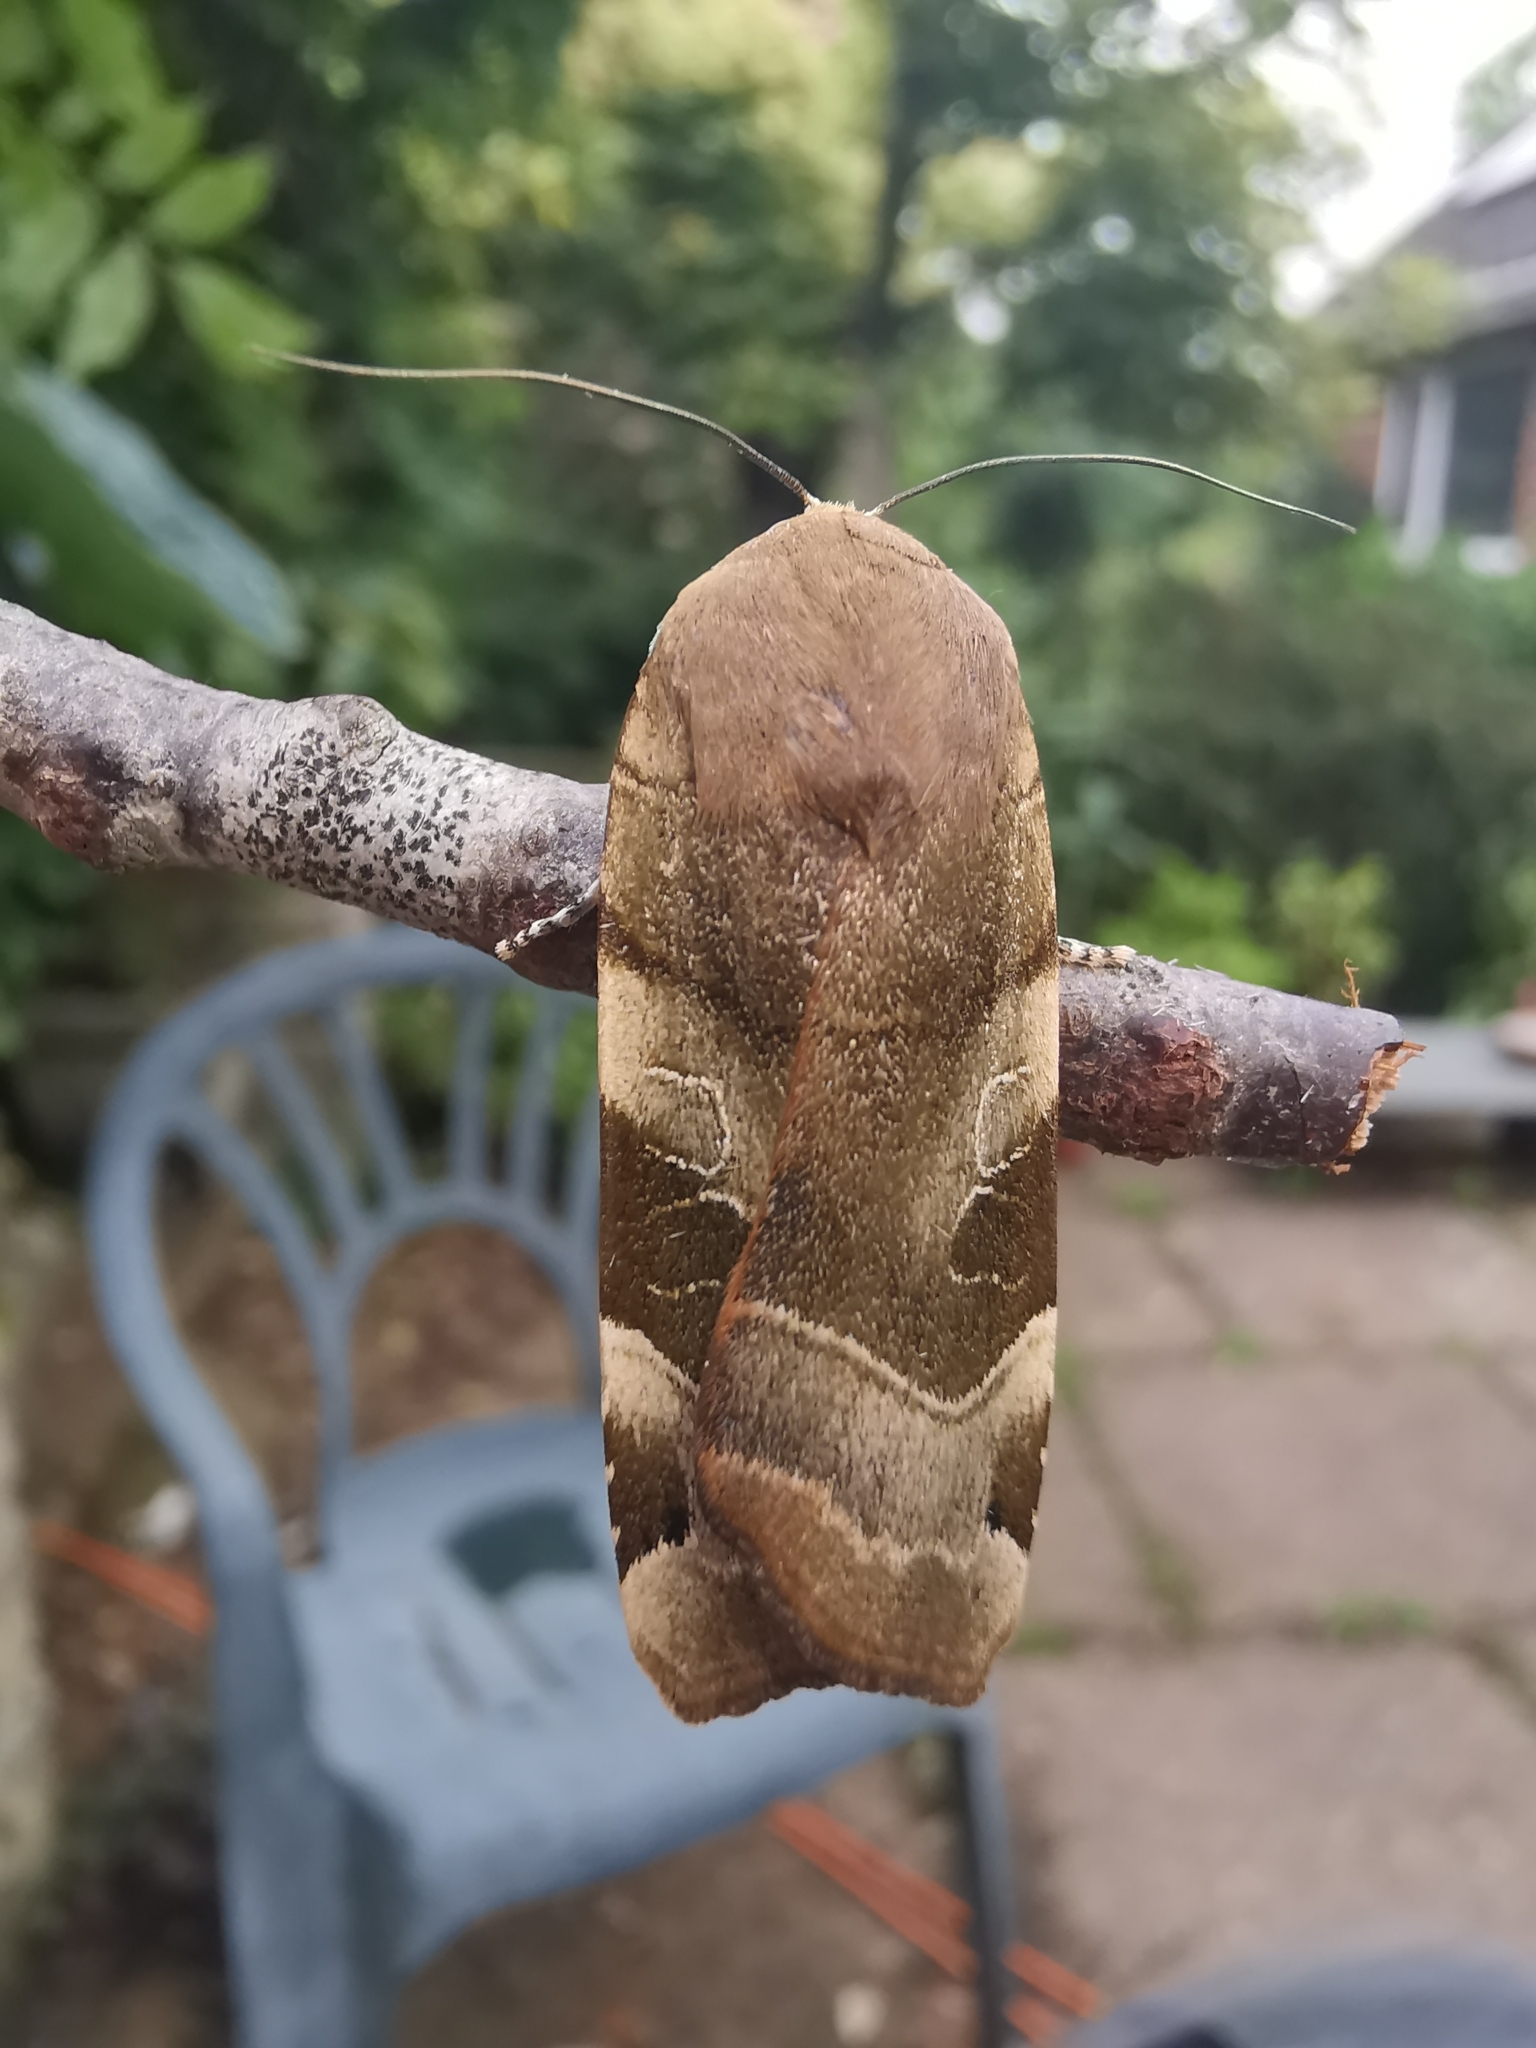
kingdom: Animalia
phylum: Arthropoda
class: Insecta
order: Lepidoptera
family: Noctuidae
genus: Noctua
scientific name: Noctua fimbriata
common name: Broad-bordered yellow underwing
